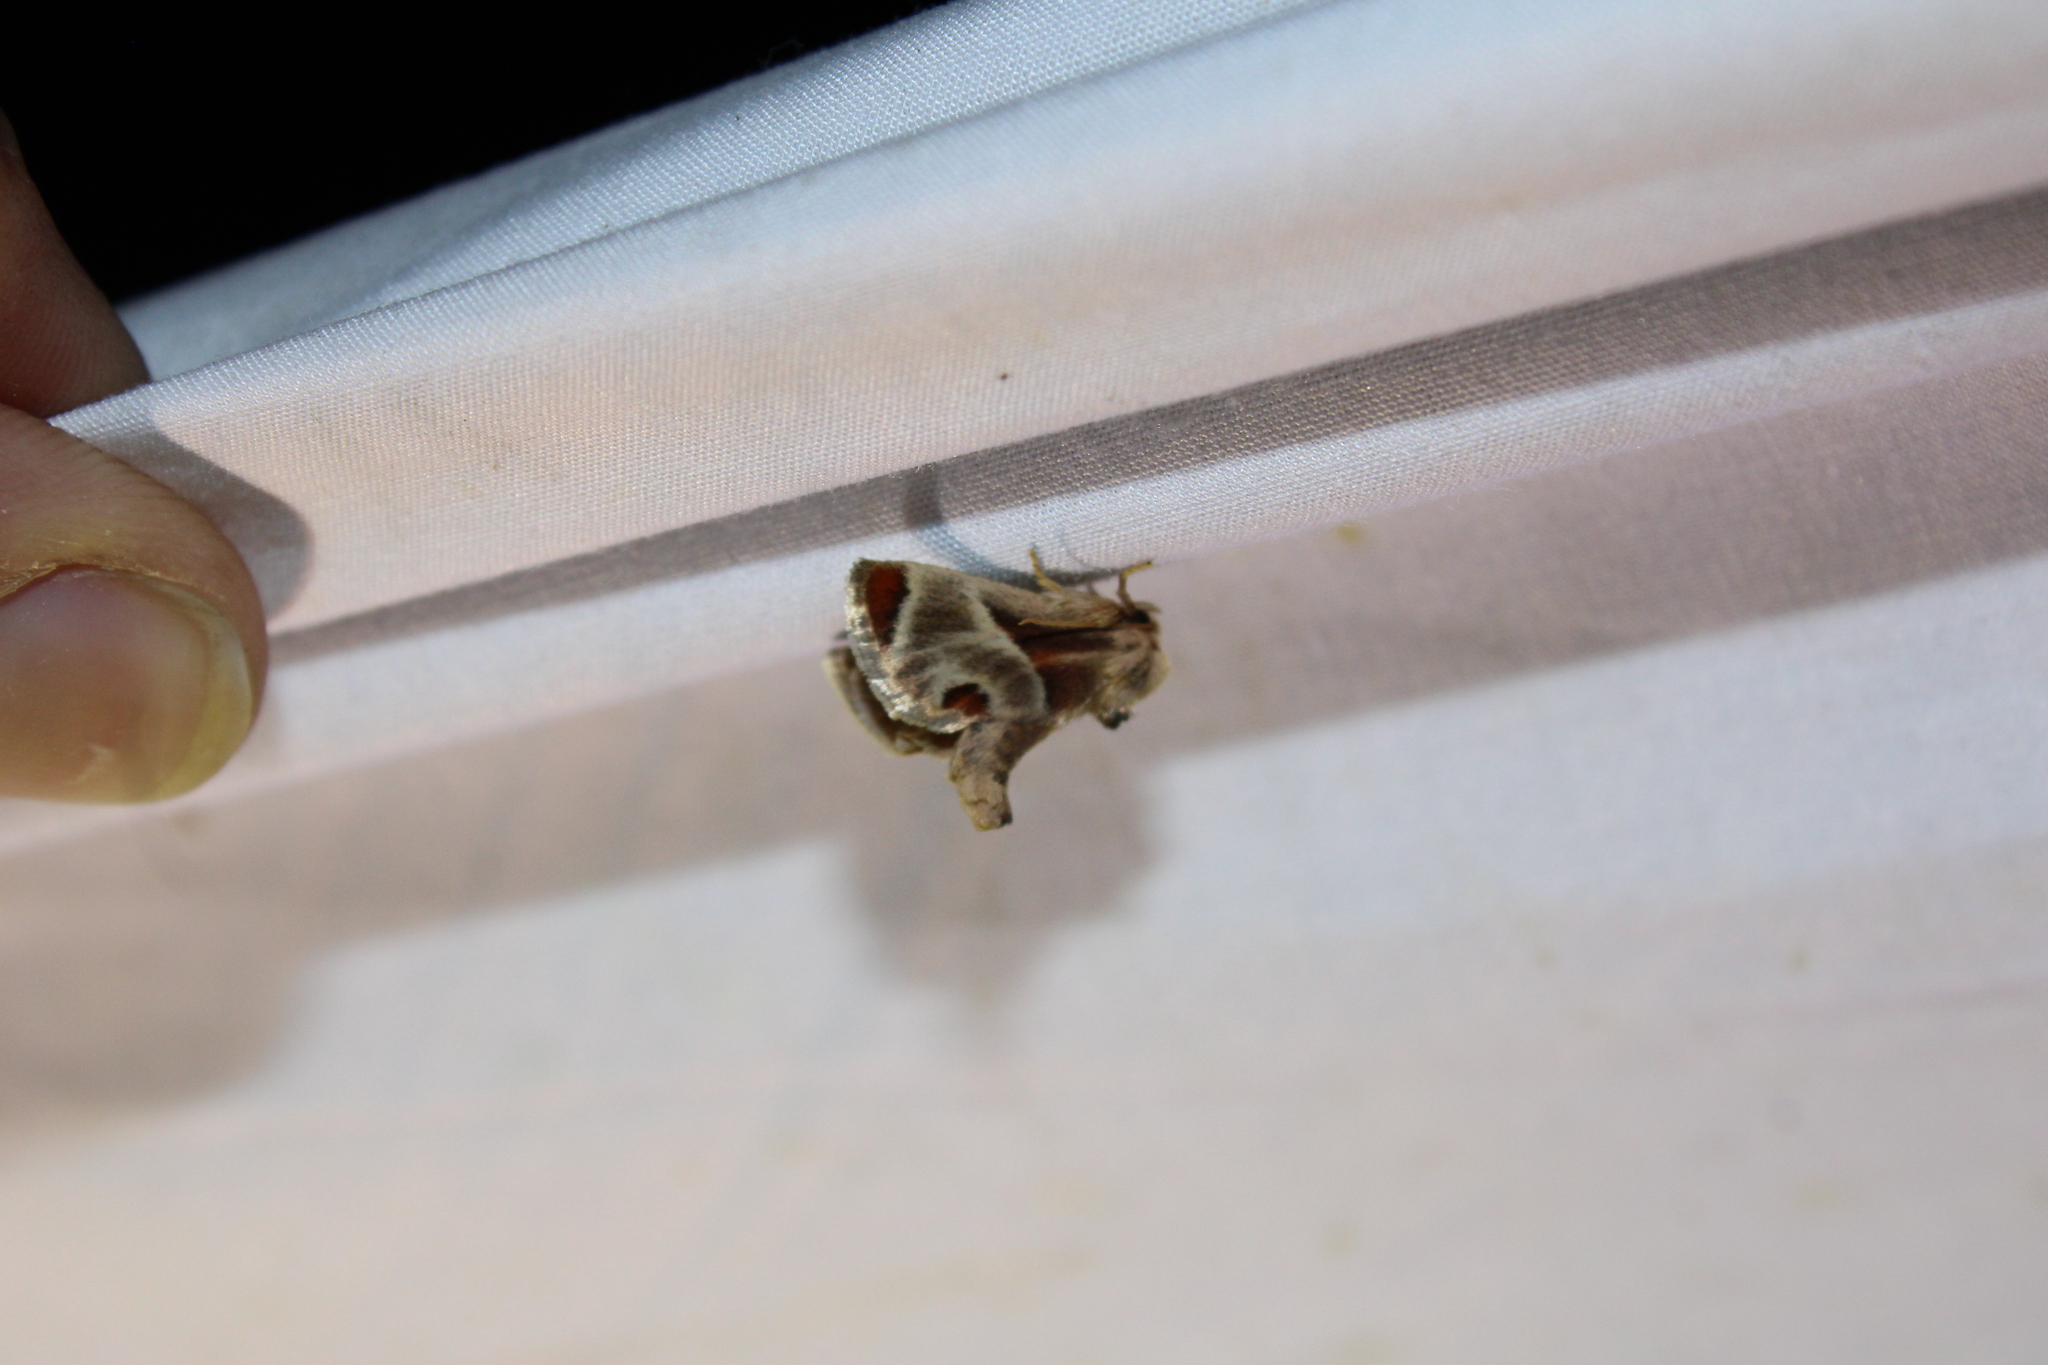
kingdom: Animalia
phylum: Arthropoda
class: Insecta
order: Lepidoptera
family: Limacodidae
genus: Apoda
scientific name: Apoda biguttata
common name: Shagreened slug moth
